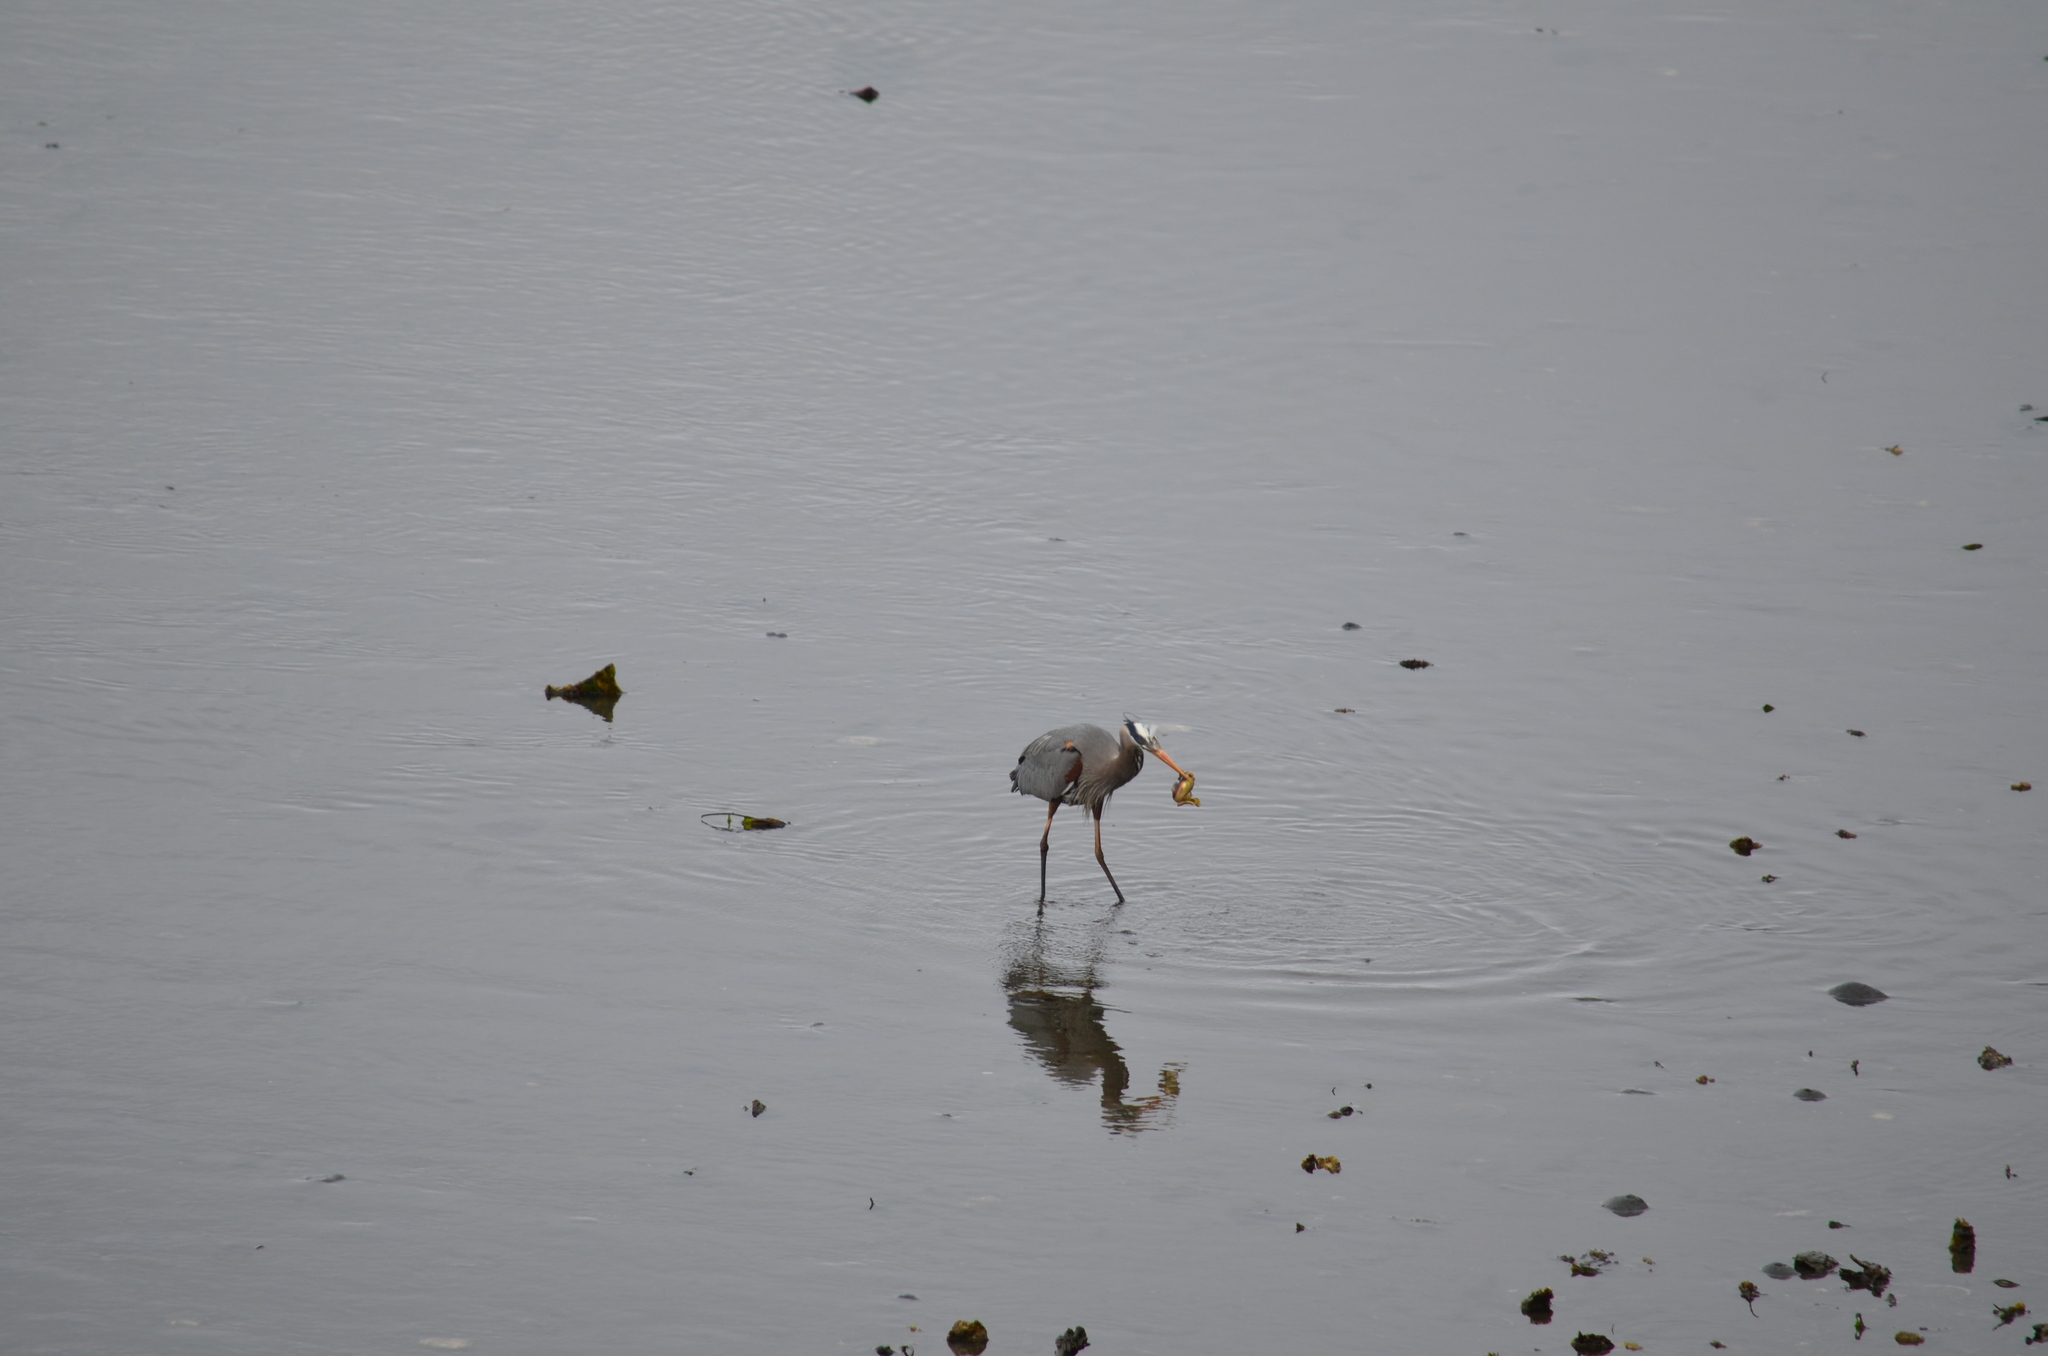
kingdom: Animalia
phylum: Chordata
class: Aves
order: Pelecaniformes
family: Ardeidae
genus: Ardea
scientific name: Ardea herodias
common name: Great blue heron
